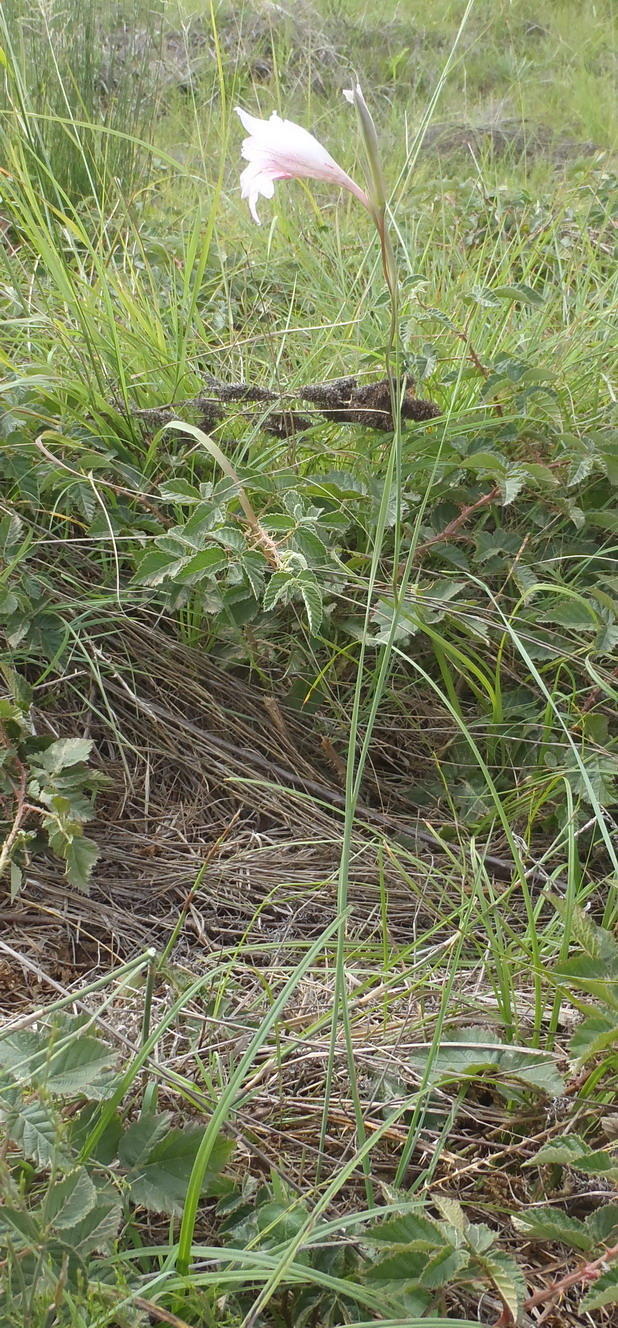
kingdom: Plantae
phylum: Tracheophyta
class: Liliopsida
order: Asparagales
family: Iridaceae
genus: Gladiolus
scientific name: Gladiolus roseovenosus
